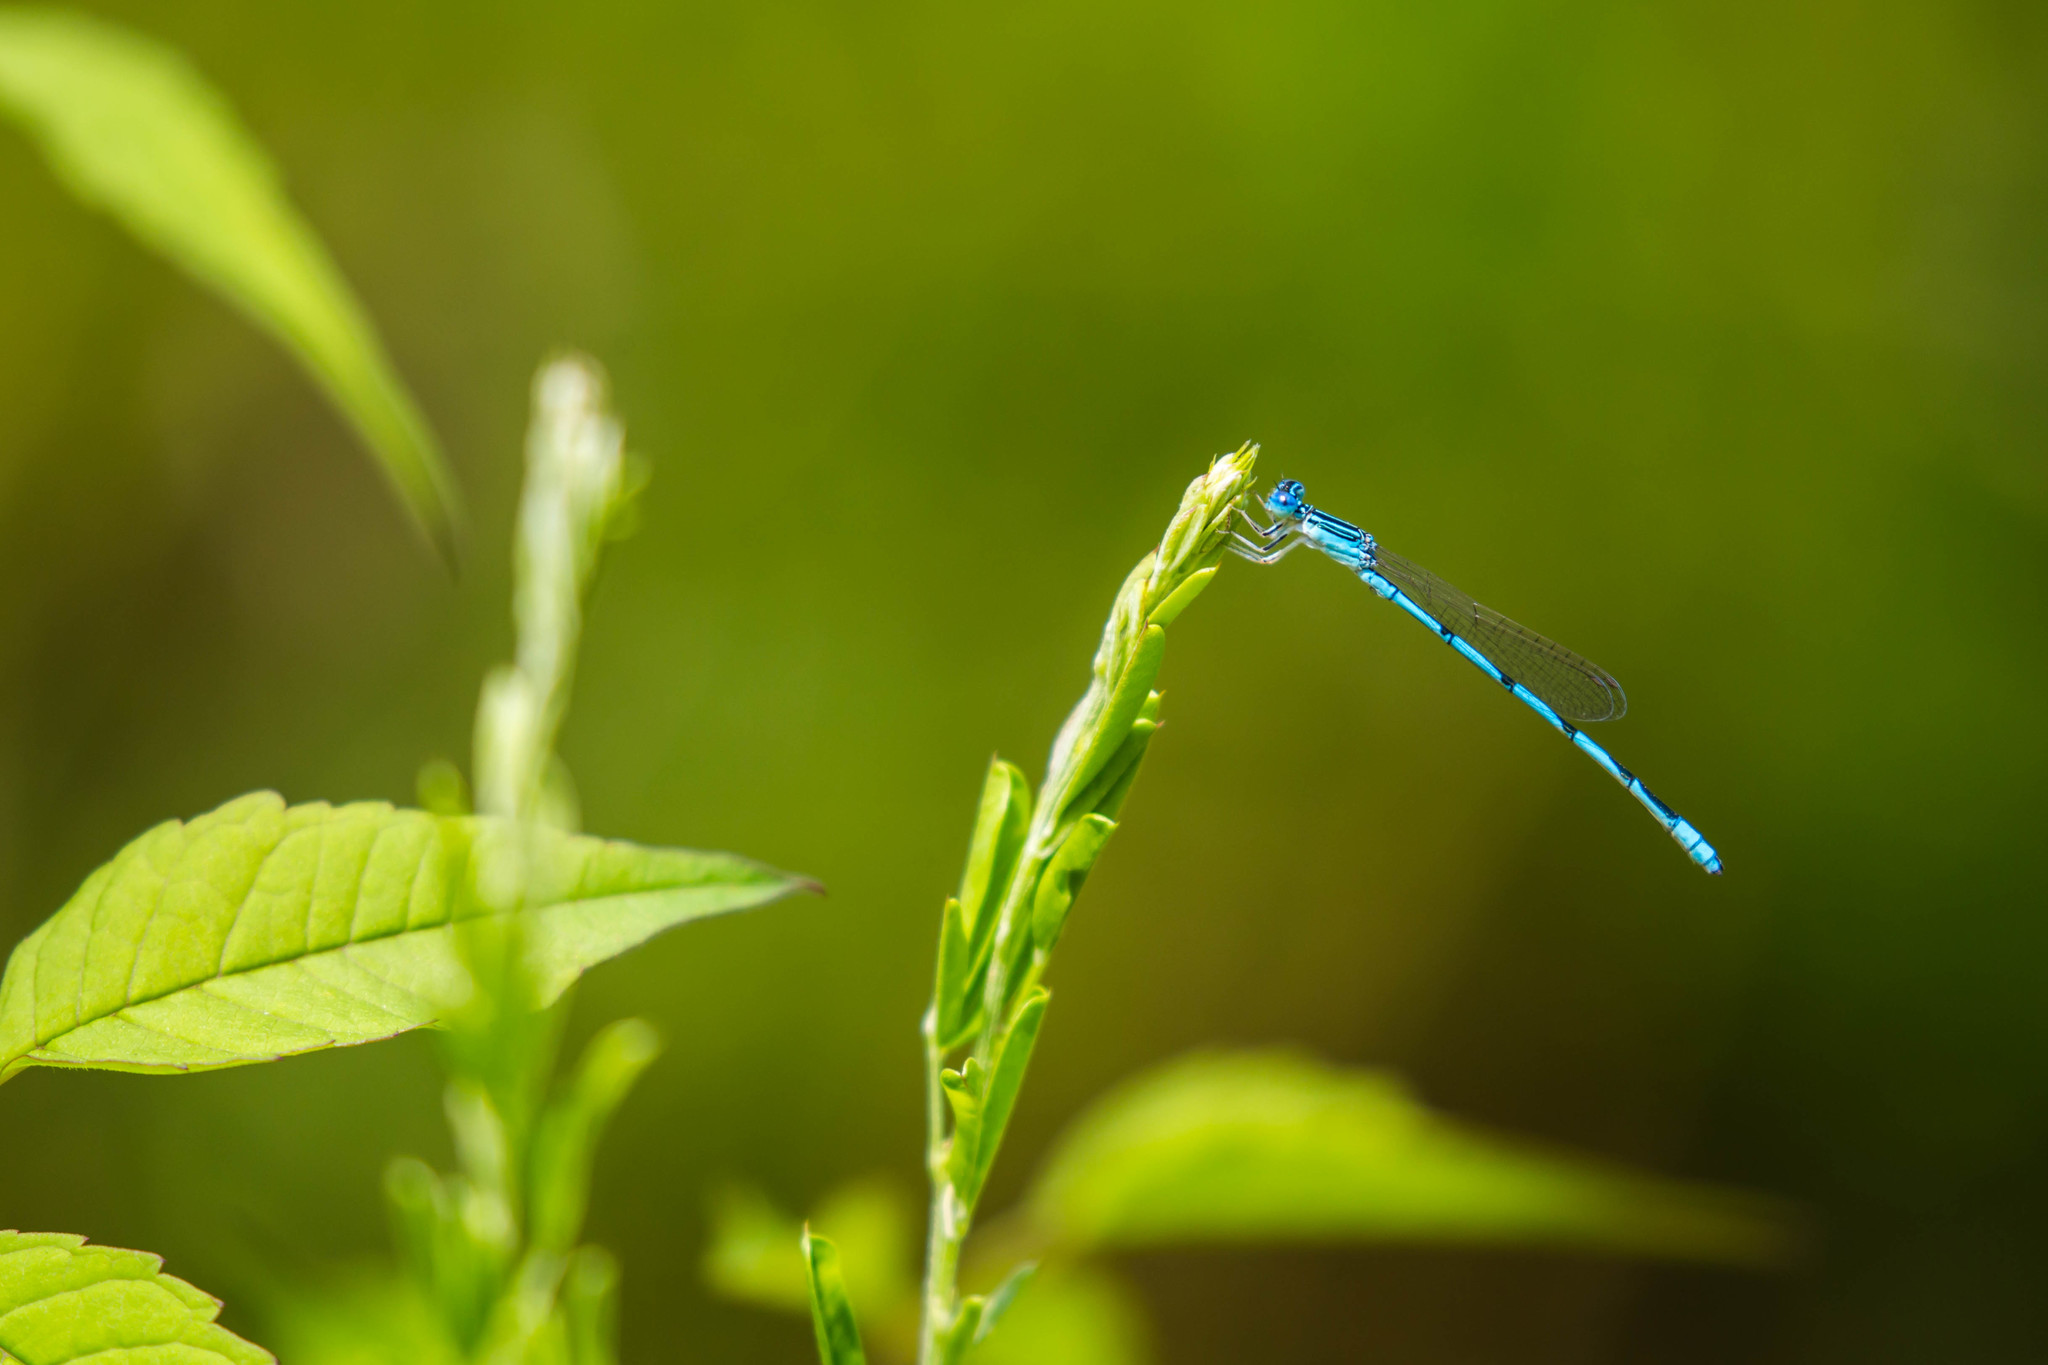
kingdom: Animalia
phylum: Arthropoda
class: Insecta
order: Odonata
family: Coenagrionidae
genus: Enallagma
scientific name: Enallagma basidens
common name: Double-striped bluet
